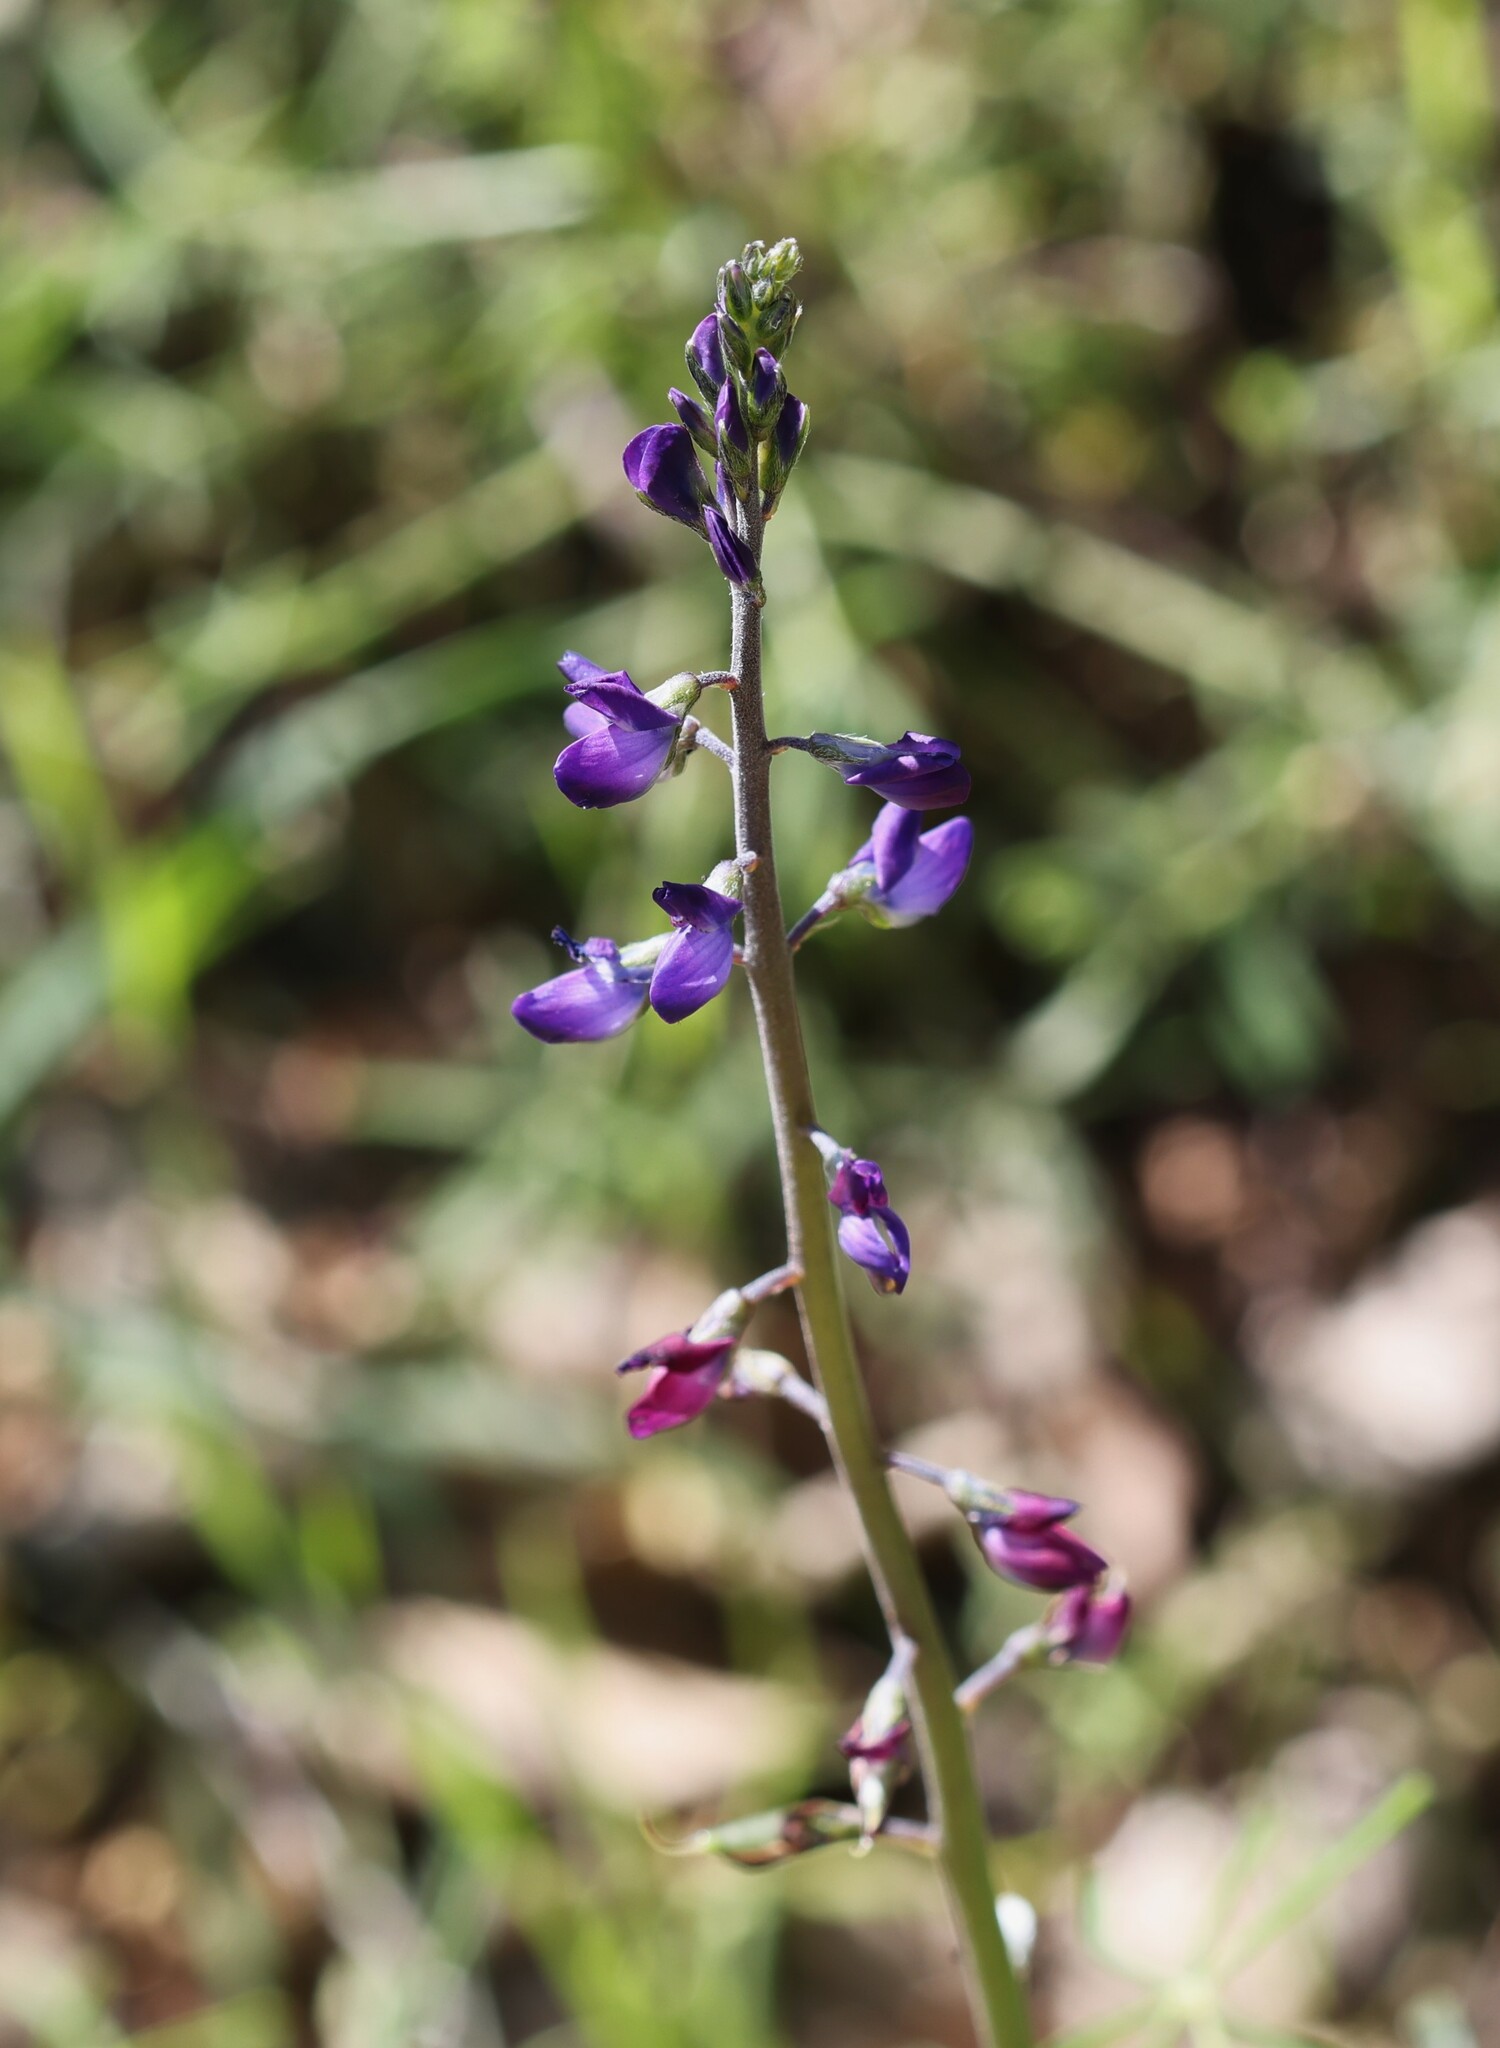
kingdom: Plantae
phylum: Tracheophyta
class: Magnoliopsida
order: Fabales
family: Fabaceae
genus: Lupinus
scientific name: Lupinus truncatus
